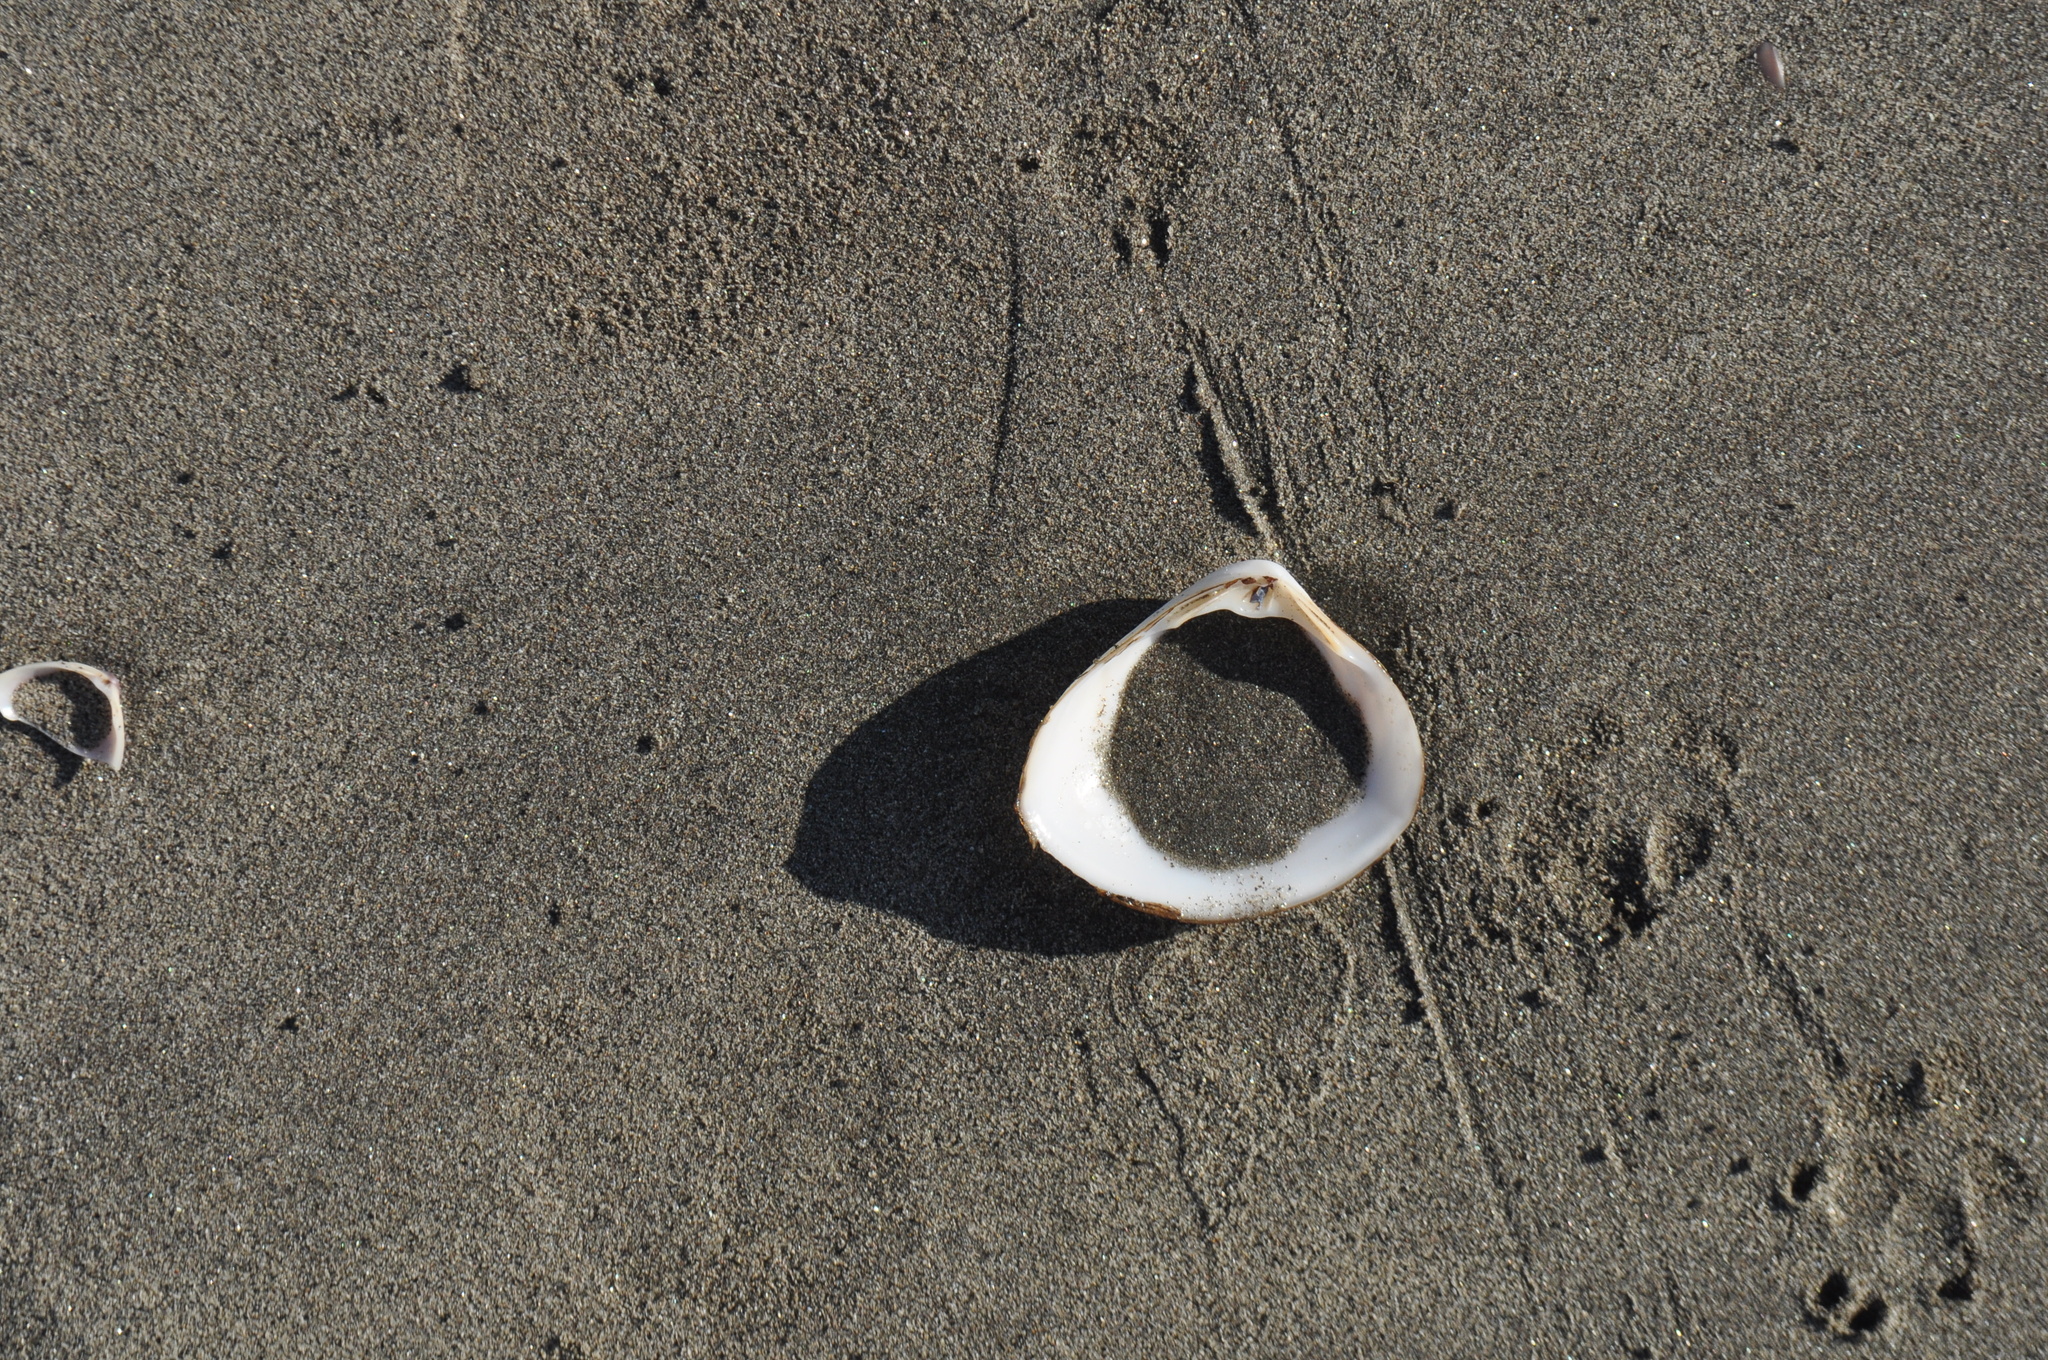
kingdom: Animalia
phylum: Mollusca
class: Bivalvia
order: Venerida
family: Mactridae
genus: Spisula
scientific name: Spisula murchisoni
